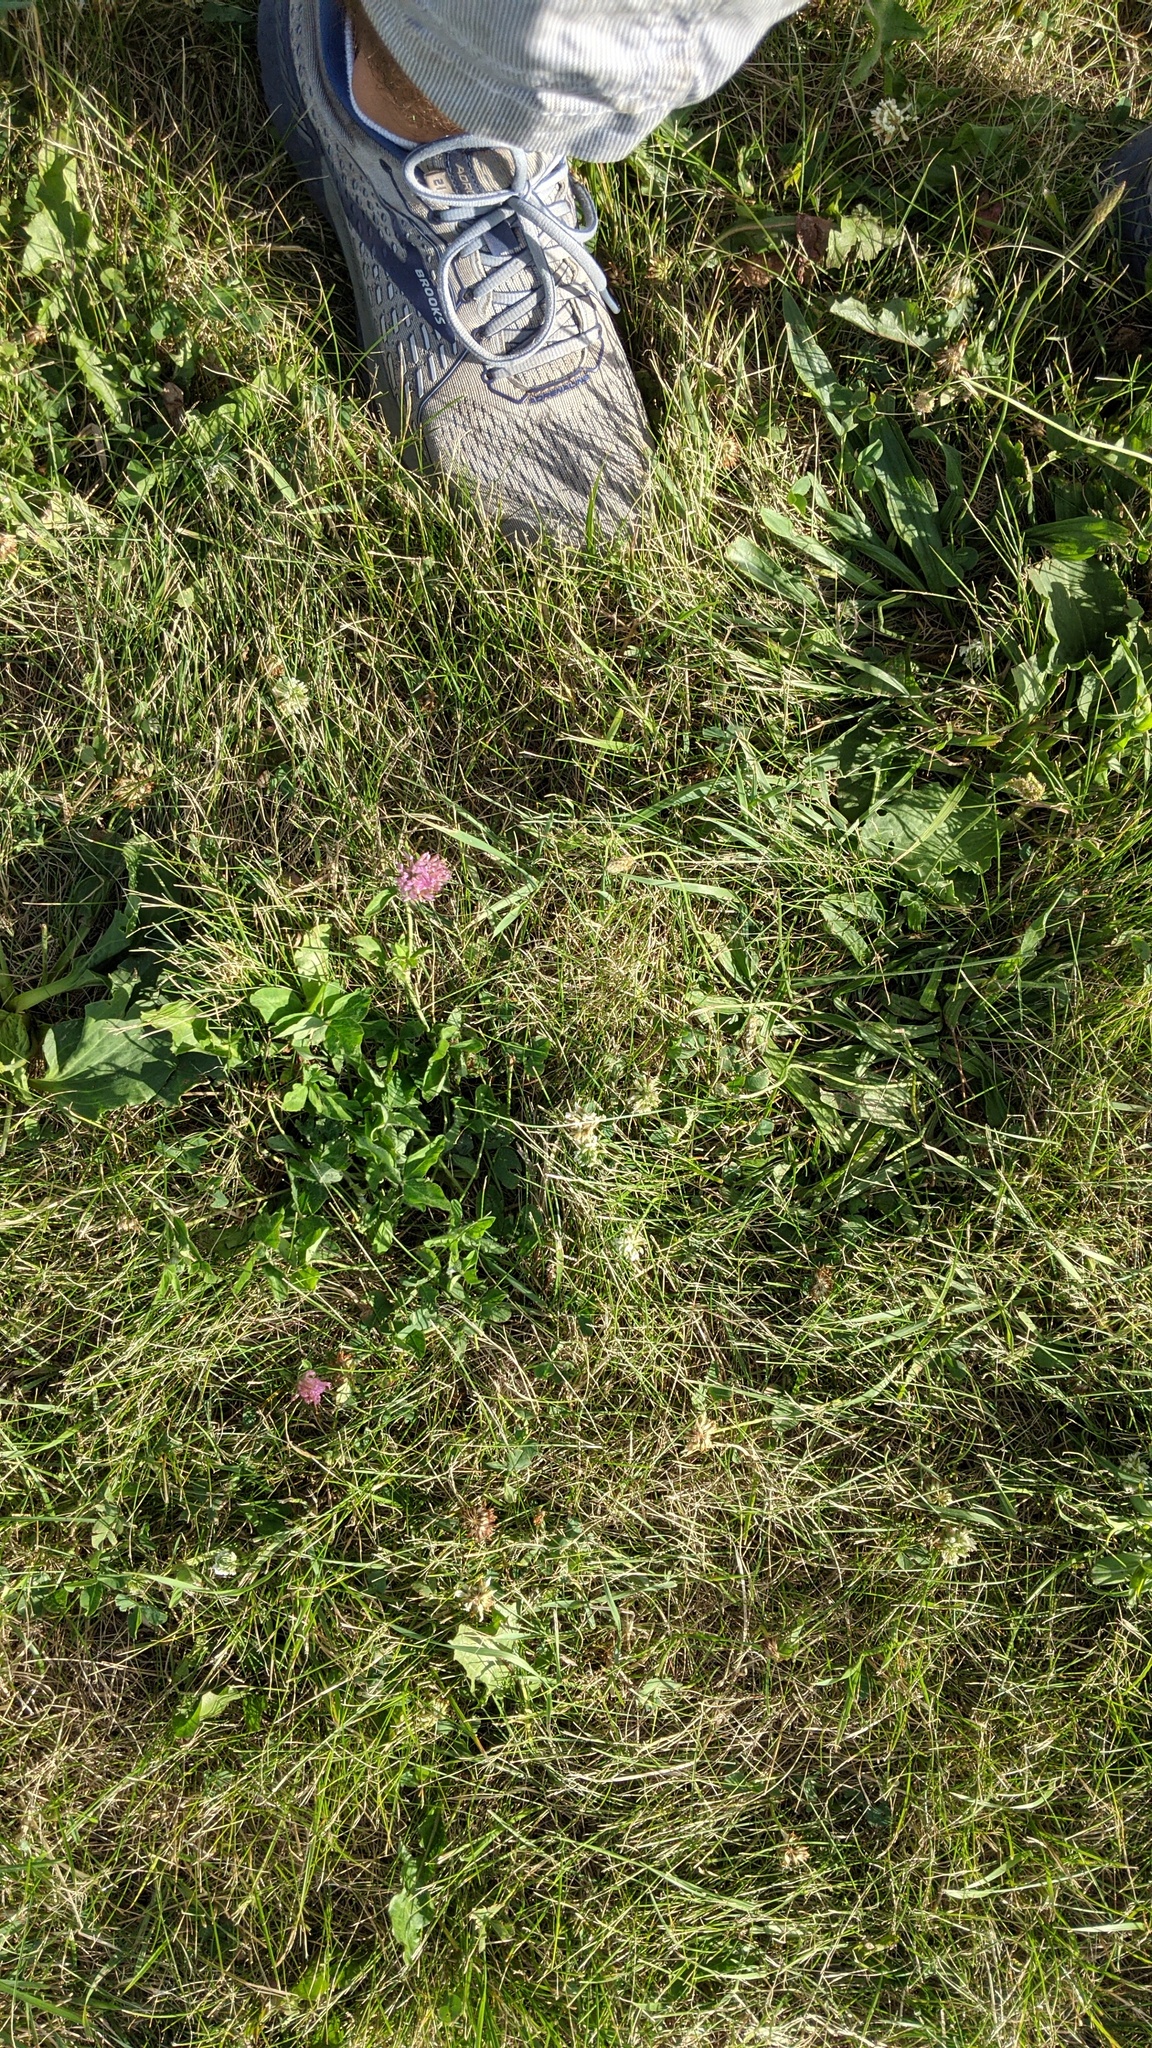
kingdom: Plantae
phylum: Tracheophyta
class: Magnoliopsida
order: Fabales
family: Fabaceae
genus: Trifolium
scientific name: Trifolium pratense
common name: Red clover
